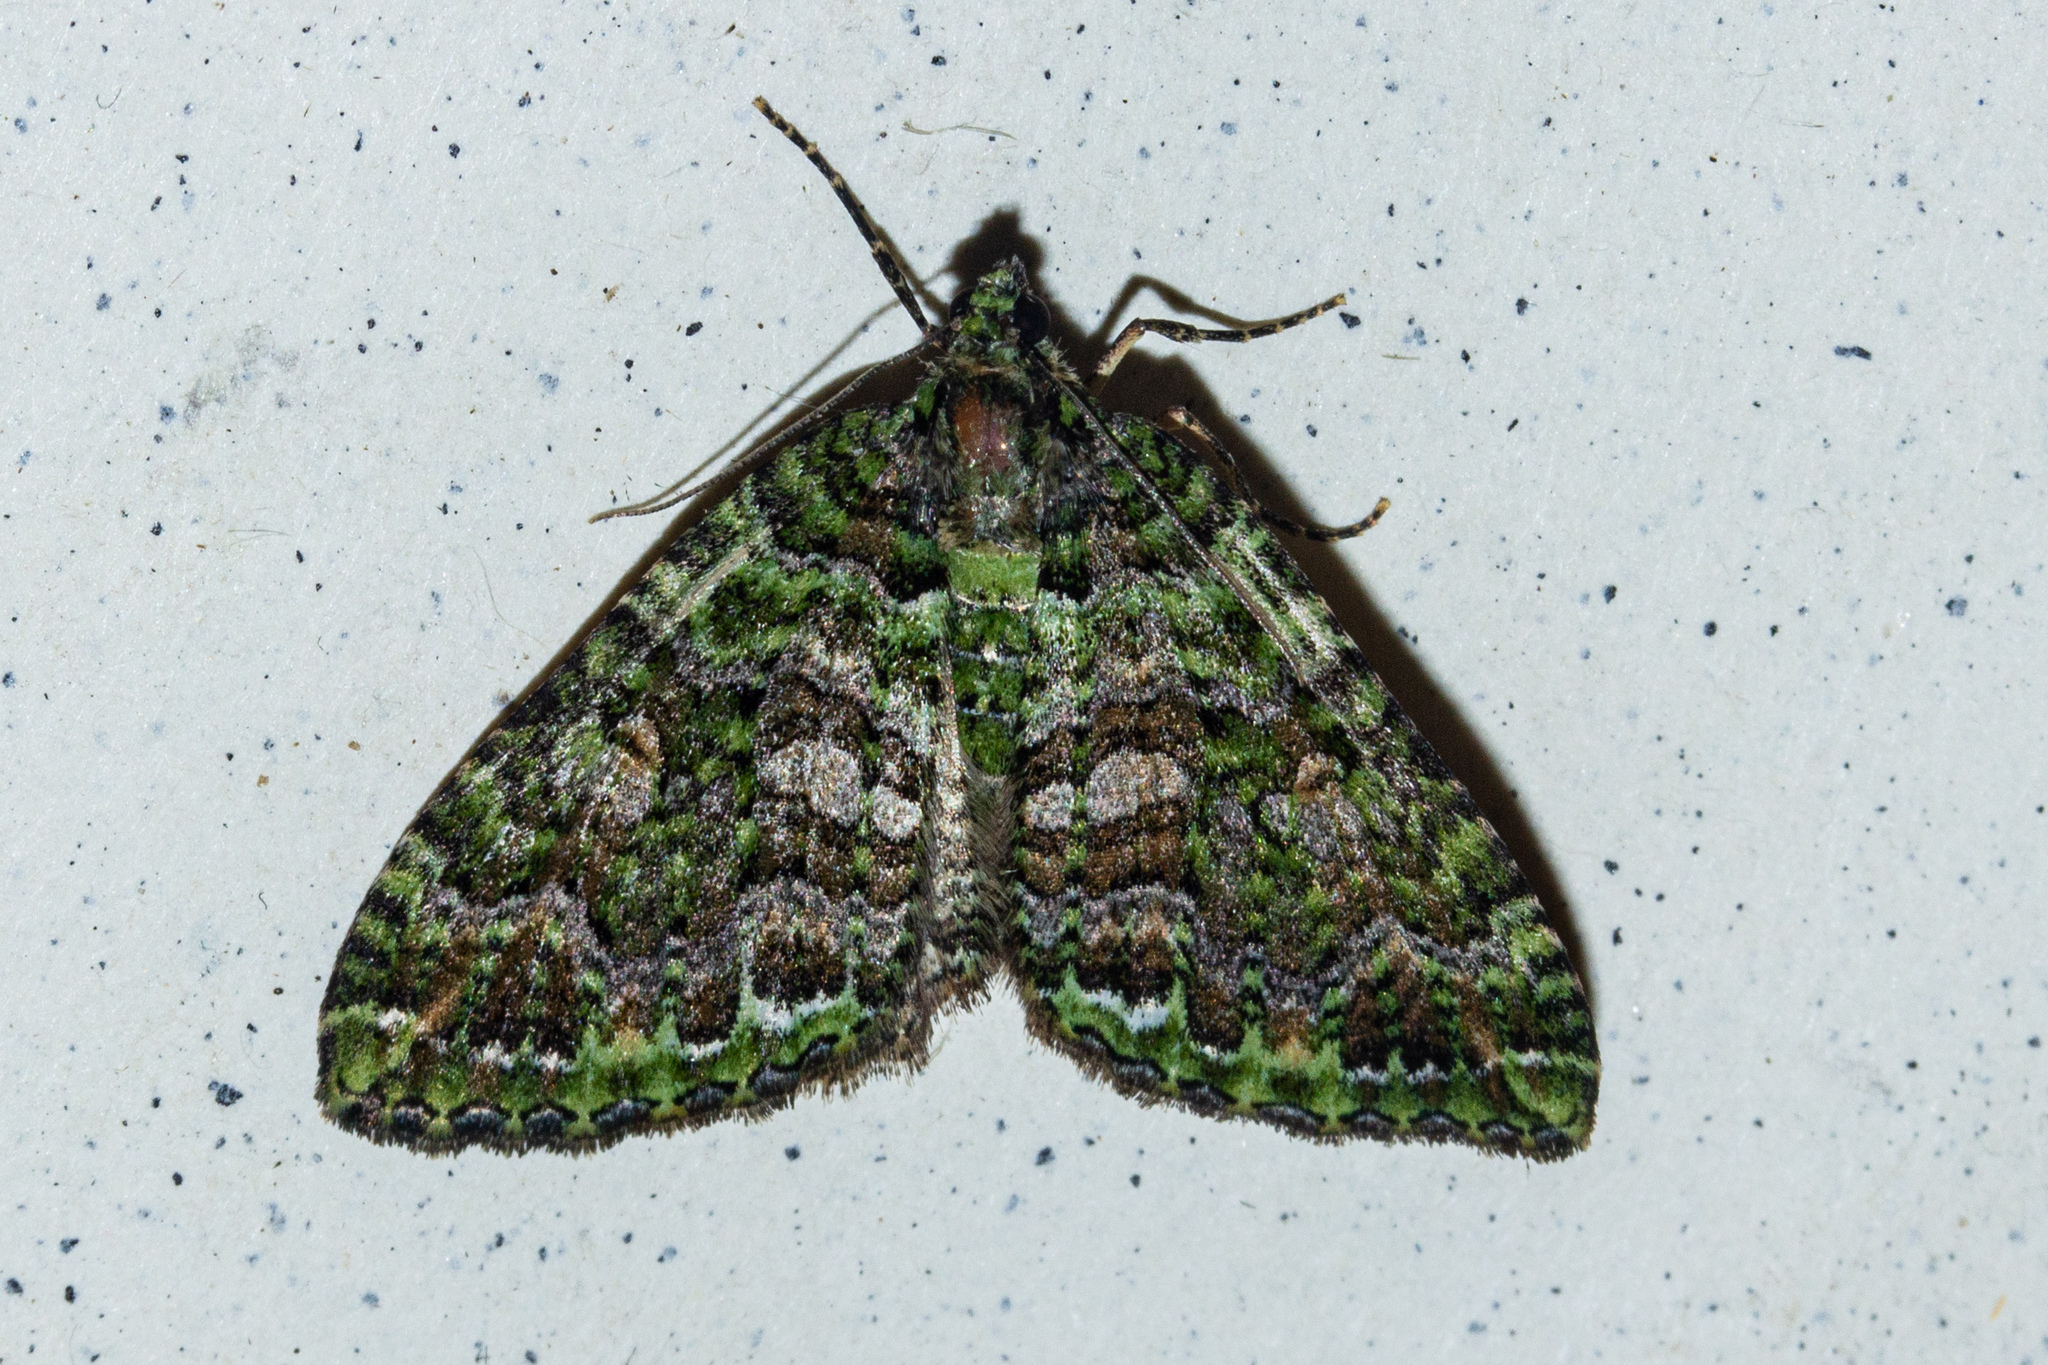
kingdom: Animalia
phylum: Arthropoda
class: Insecta
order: Lepidoptera
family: Geometridae
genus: Austrocidaria
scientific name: Austrocidaria similata
